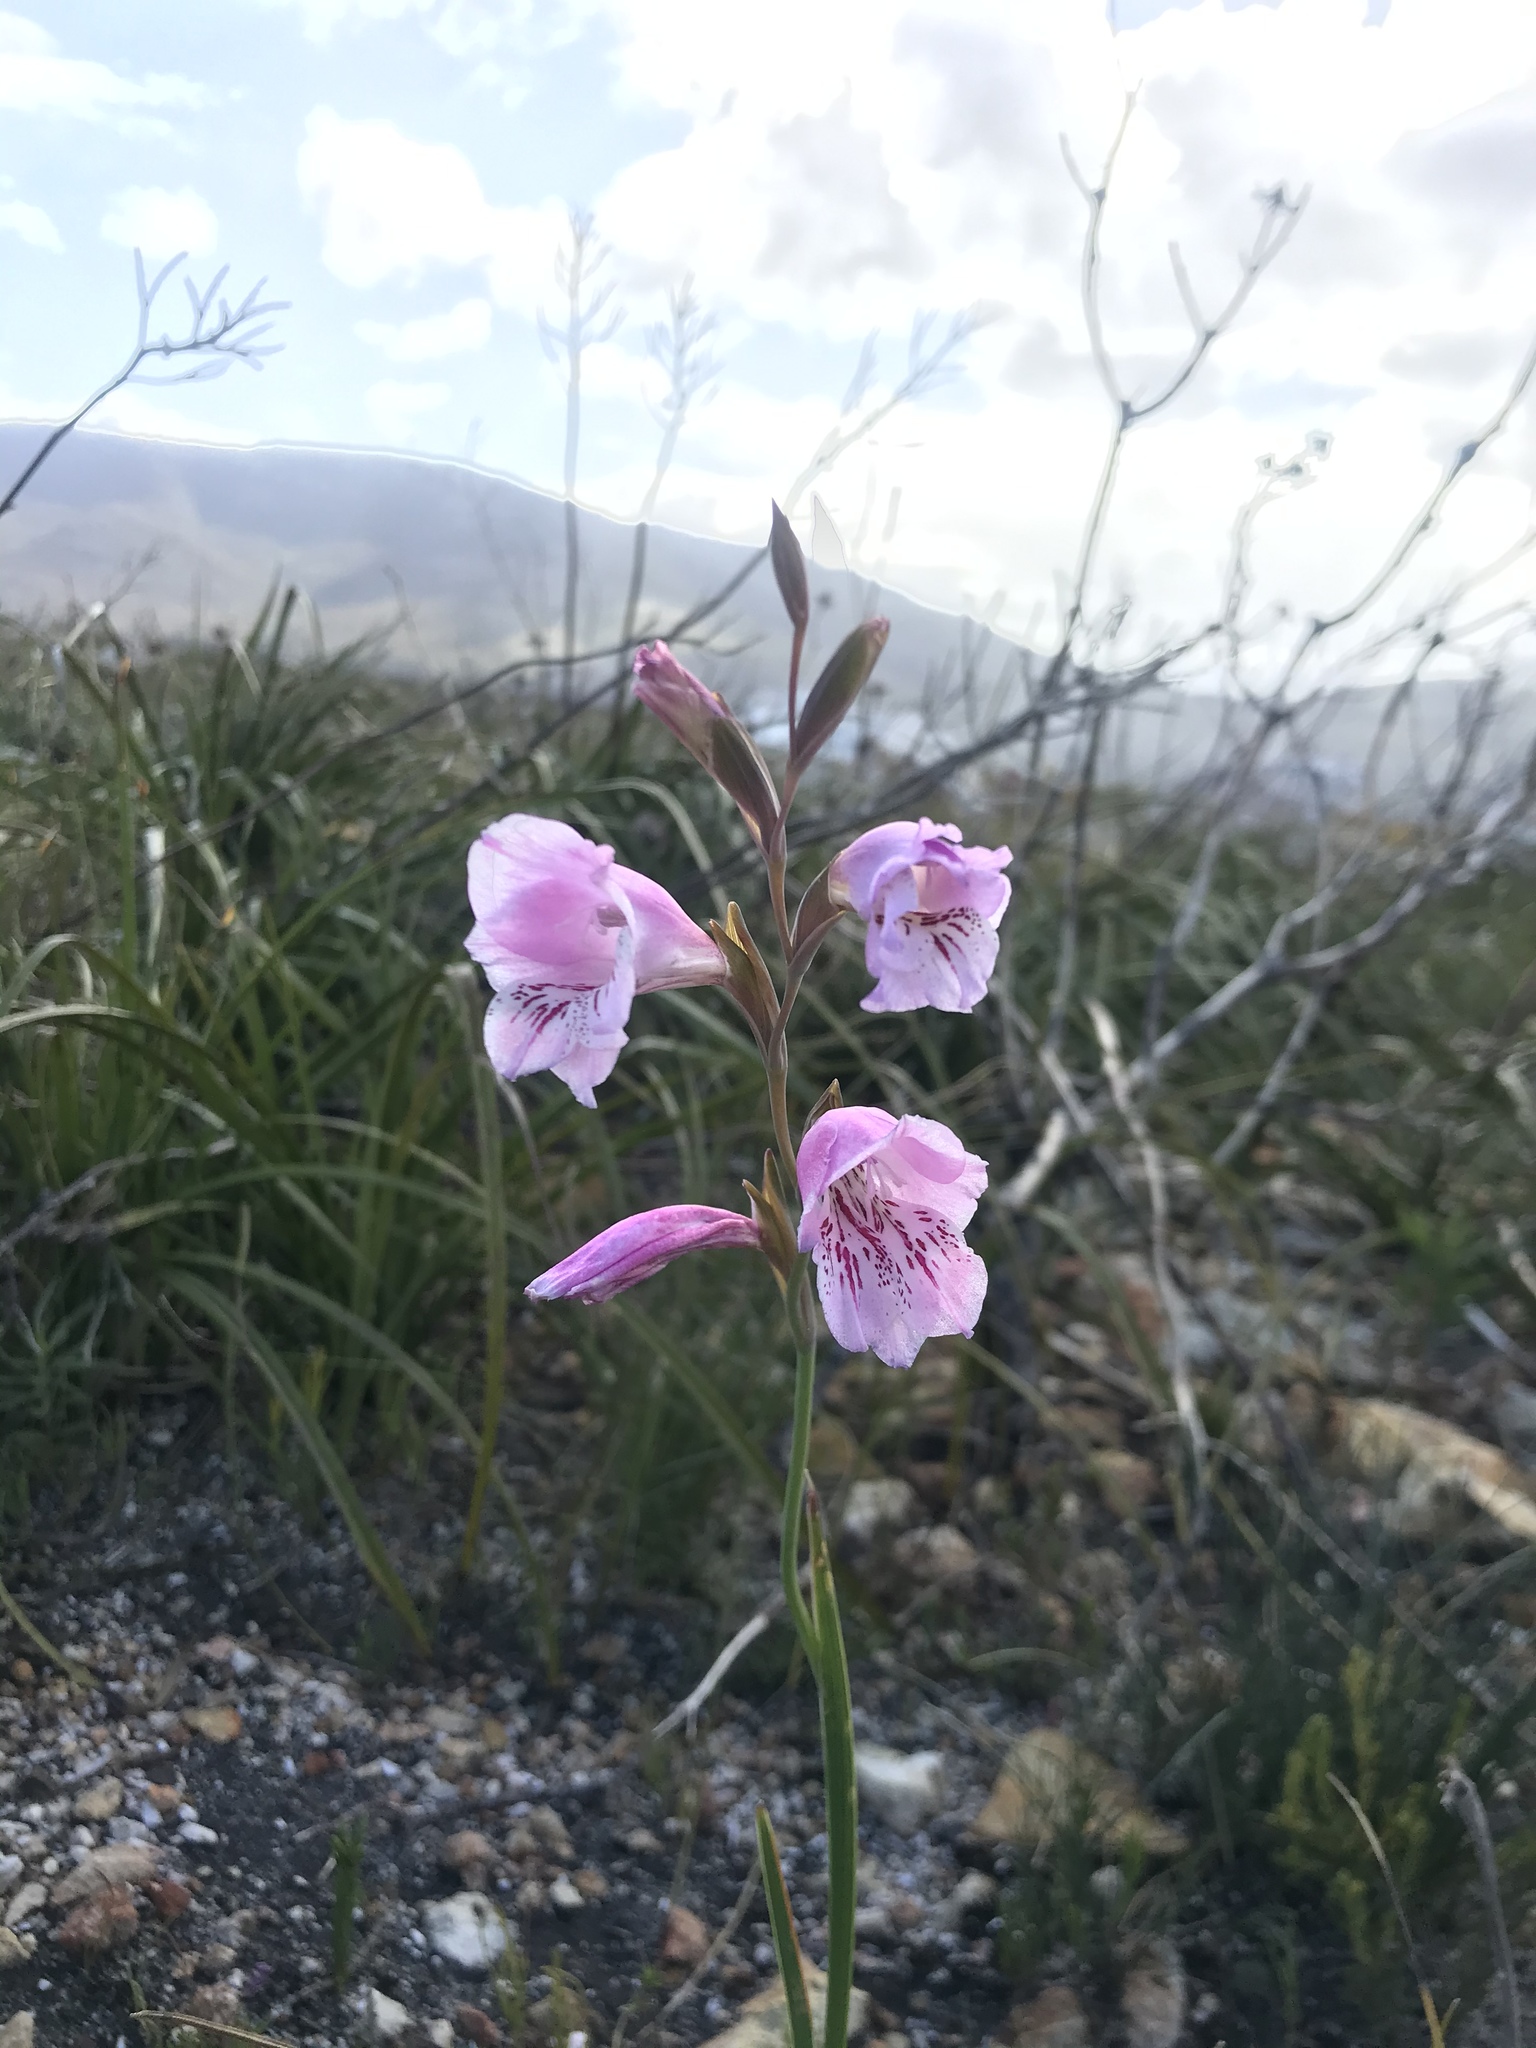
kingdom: Plantae
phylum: Tracheophyta
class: Liliopsida
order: Asparagales
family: Iridaceae
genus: Gladiolus
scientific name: Gladiolus hirsutus
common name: Small pink afrikaner
